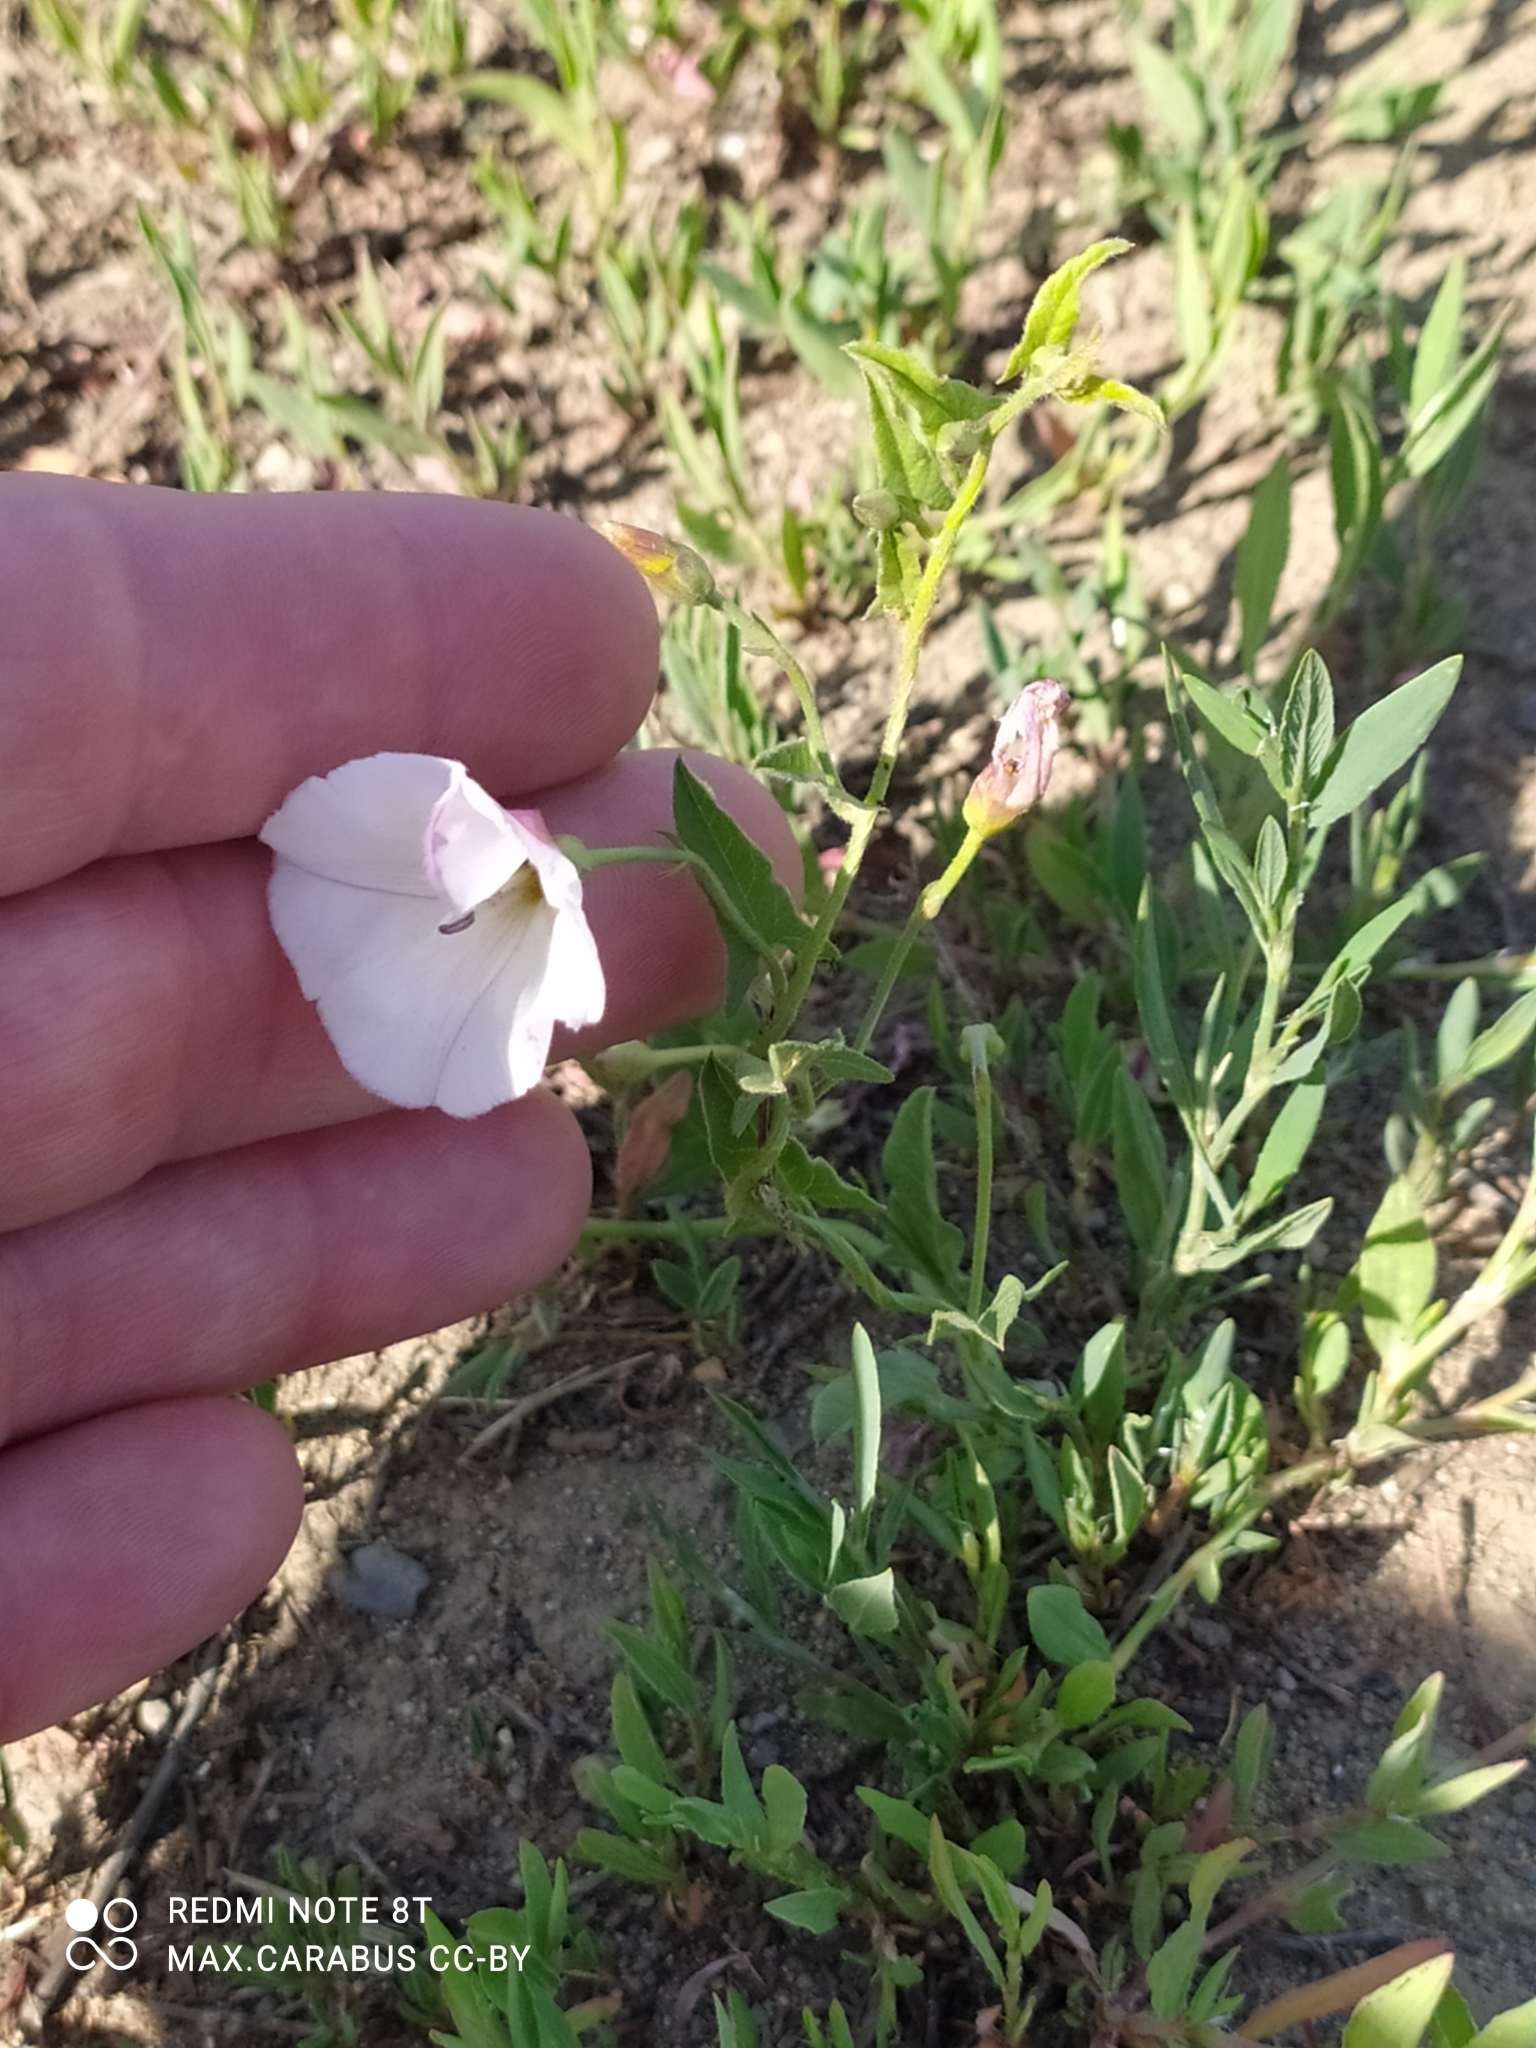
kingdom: Plantae
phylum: Tracheophyta
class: Magnoliopsida
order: Solanales
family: Convolvulaceae
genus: Convolvulus
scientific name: Convolvulus arvensis
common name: Field bindweed
